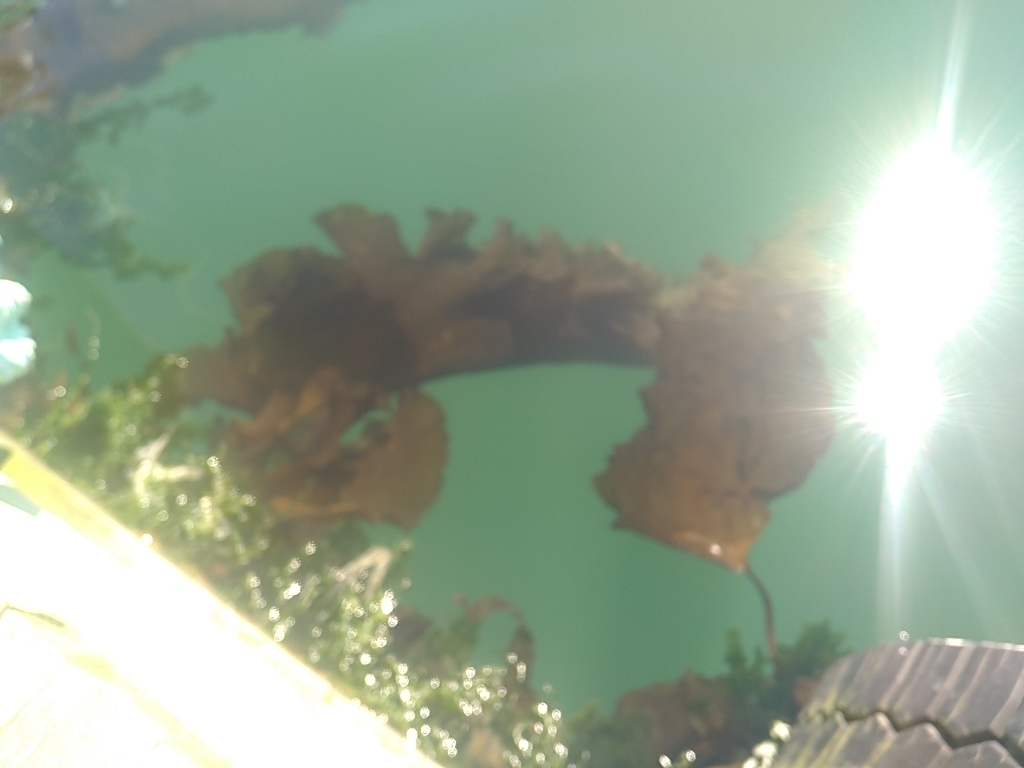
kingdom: Chromista
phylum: Ochrophyta
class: Phaeophyceae
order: Laminariales
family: Laminariaceae
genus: Saccharina
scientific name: Saccharina latissima
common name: Poor man's weather glass
